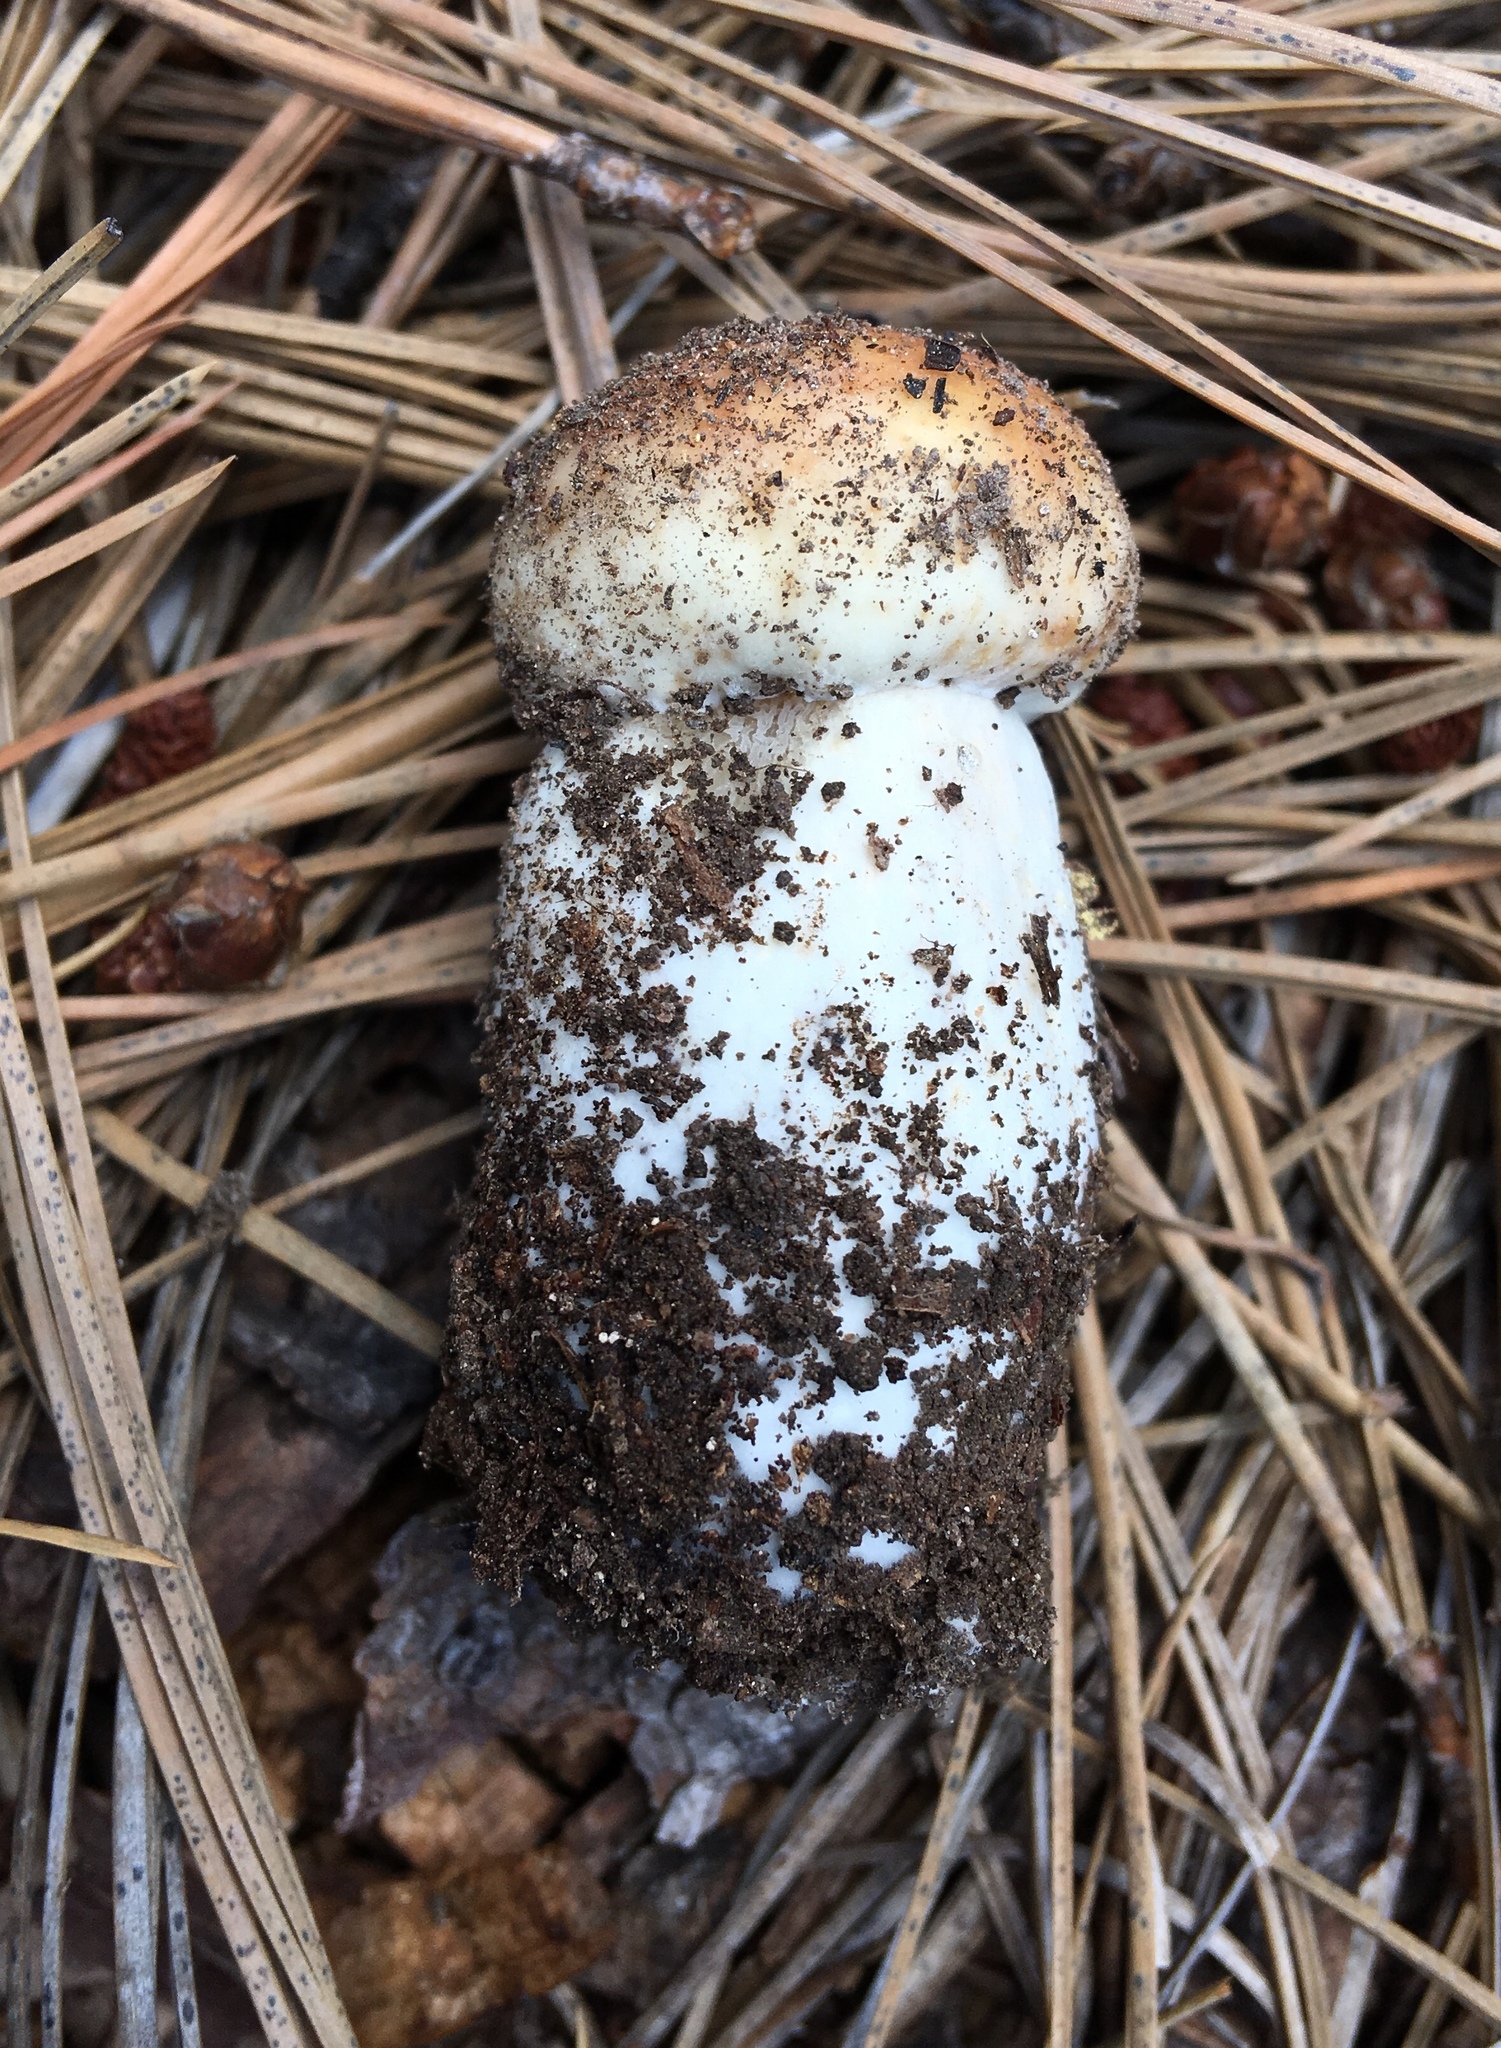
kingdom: Fungi
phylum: Basidiomycota
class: Agaricomycetes
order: Boletales
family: Boletaceae
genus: Boletus
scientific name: Boletus rubriceps
